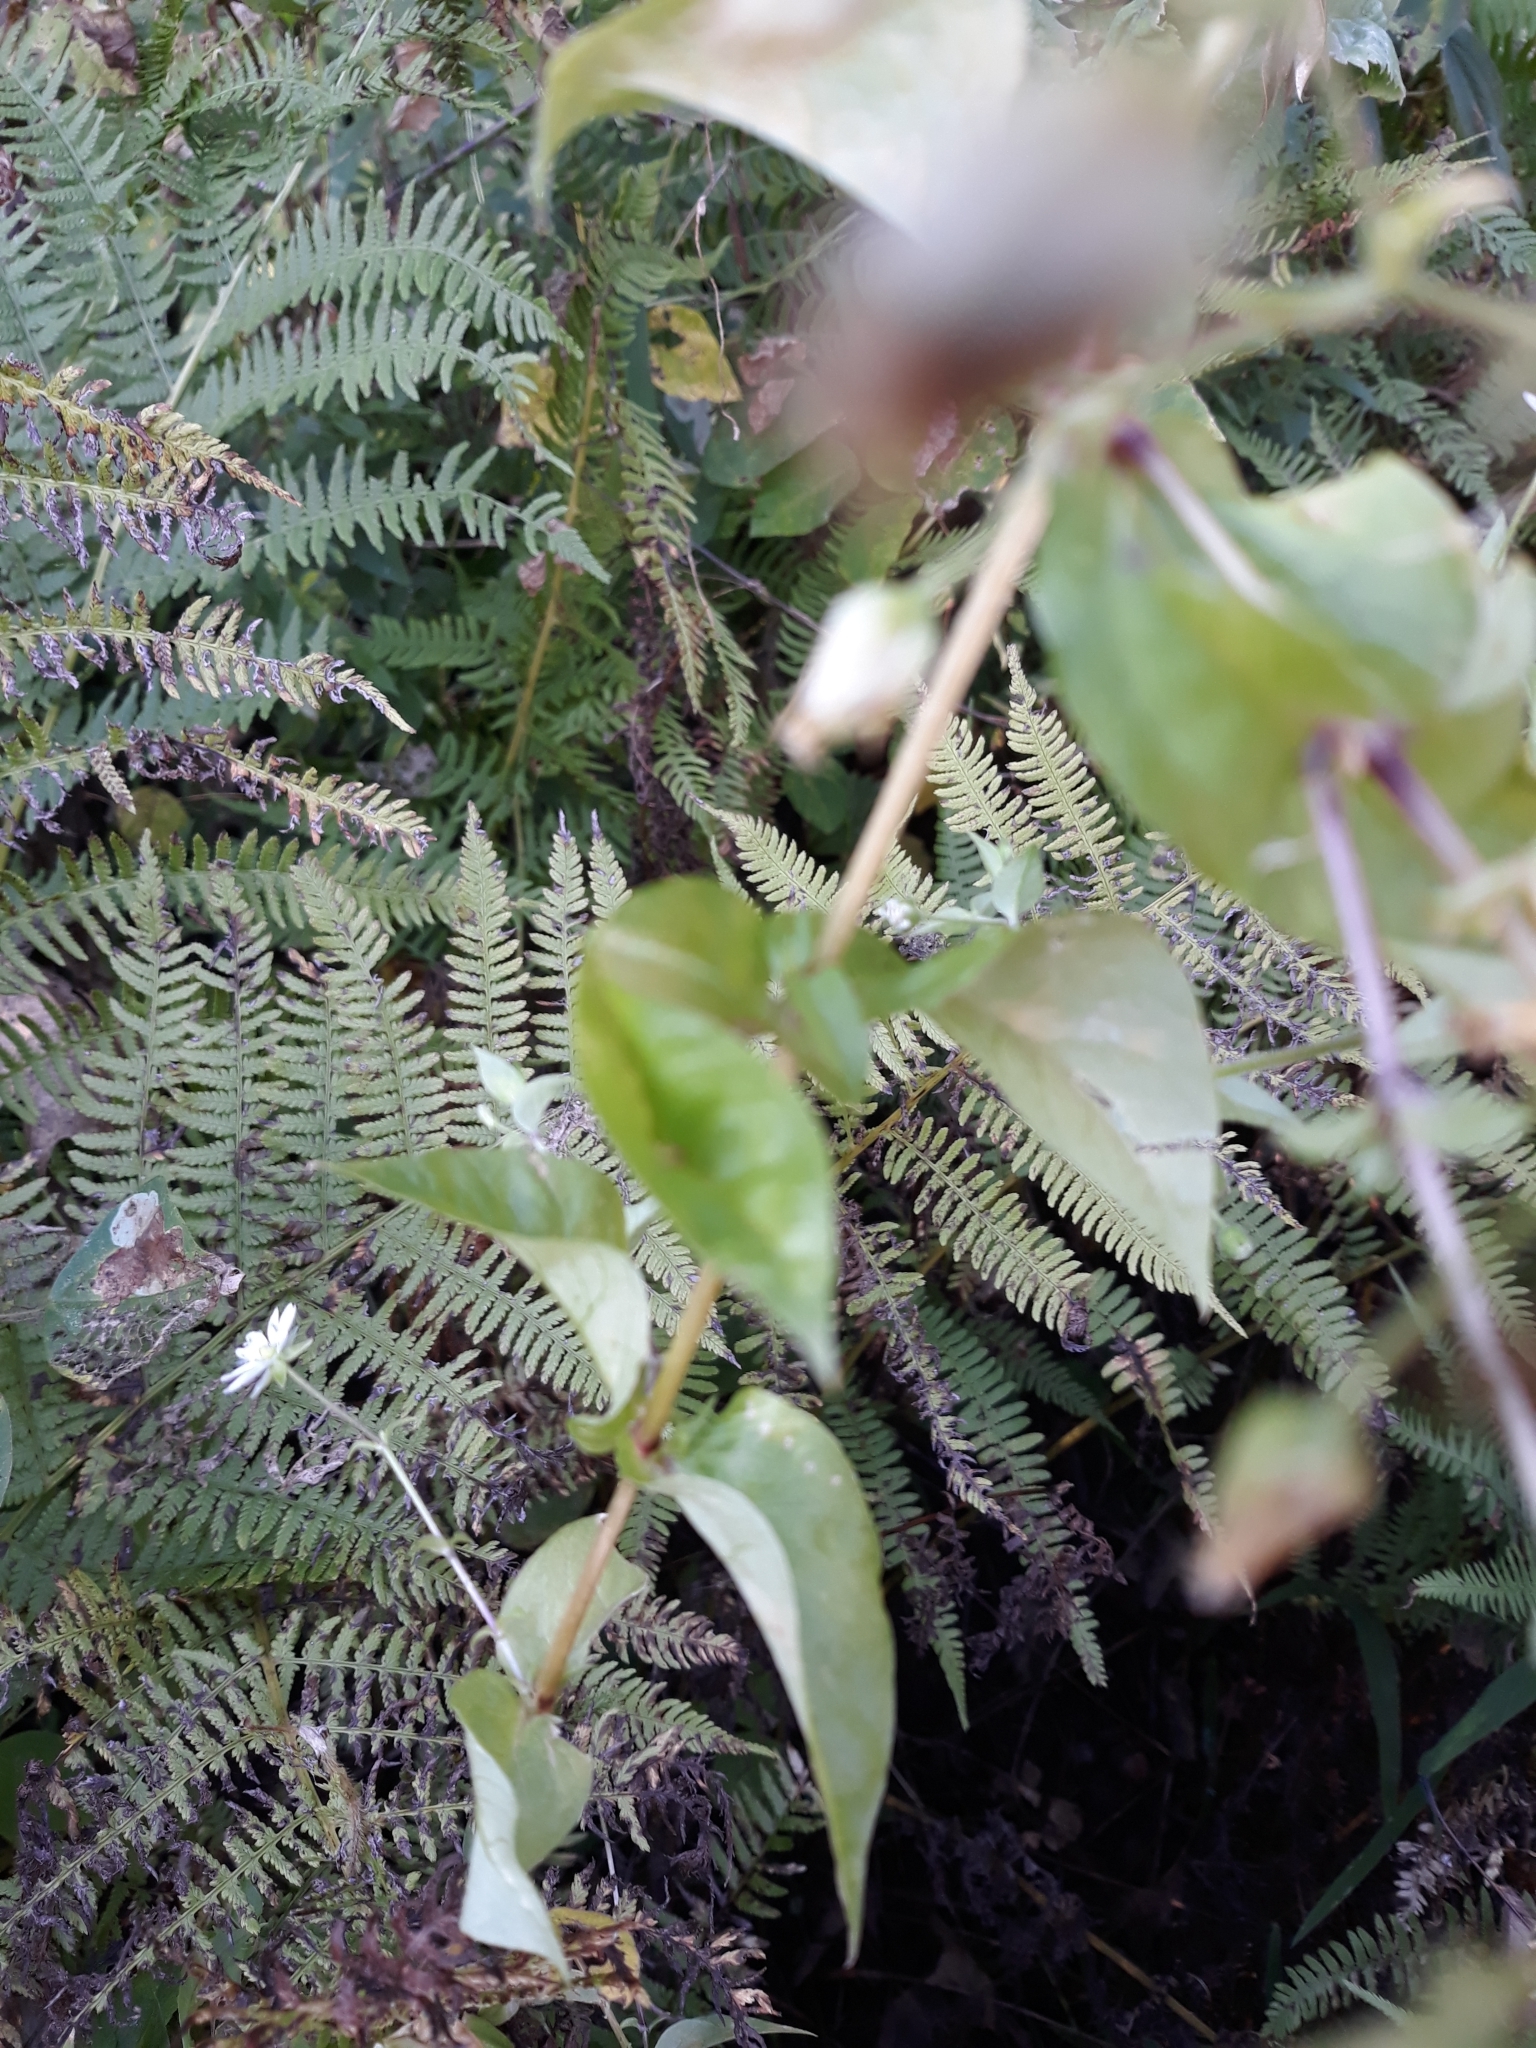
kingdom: Plantae
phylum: Tracheophyta
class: Magnoliopsida
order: Caryophyllales
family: Caryophyllaceae
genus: Stellaria
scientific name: Stellaria media
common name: Common chickweed
